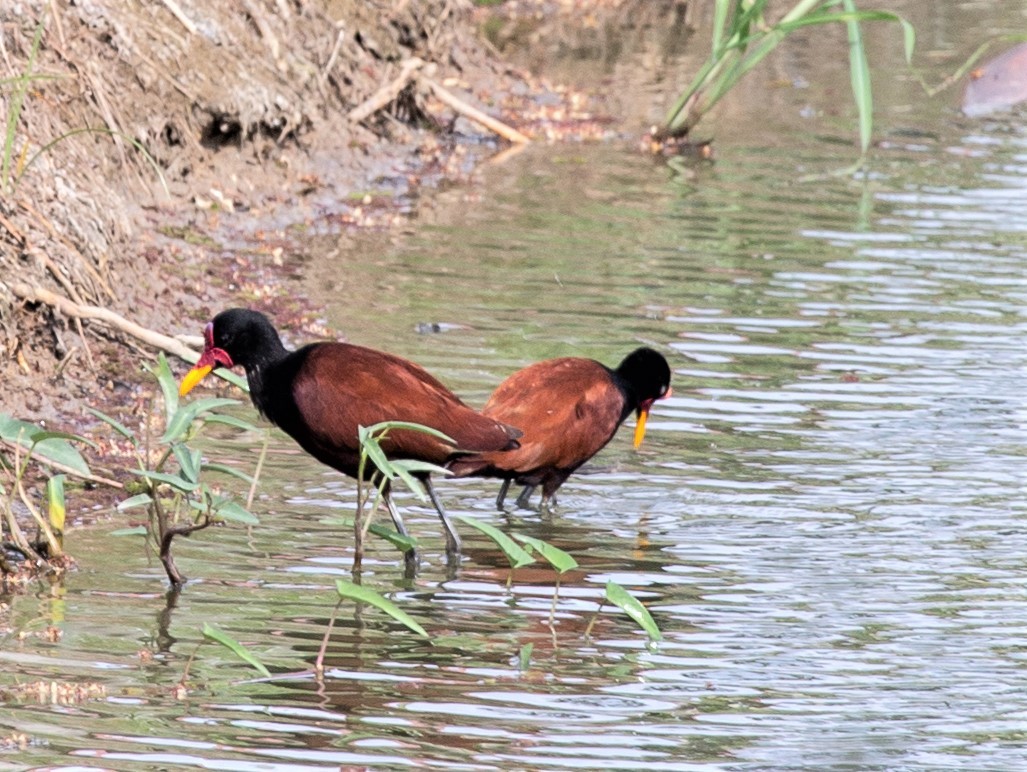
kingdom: Animalia
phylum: Chordata
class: Aves
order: Charadriiformes
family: Jacanidae
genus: Jacana
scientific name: Jacana jacana
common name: Wattled jacana
